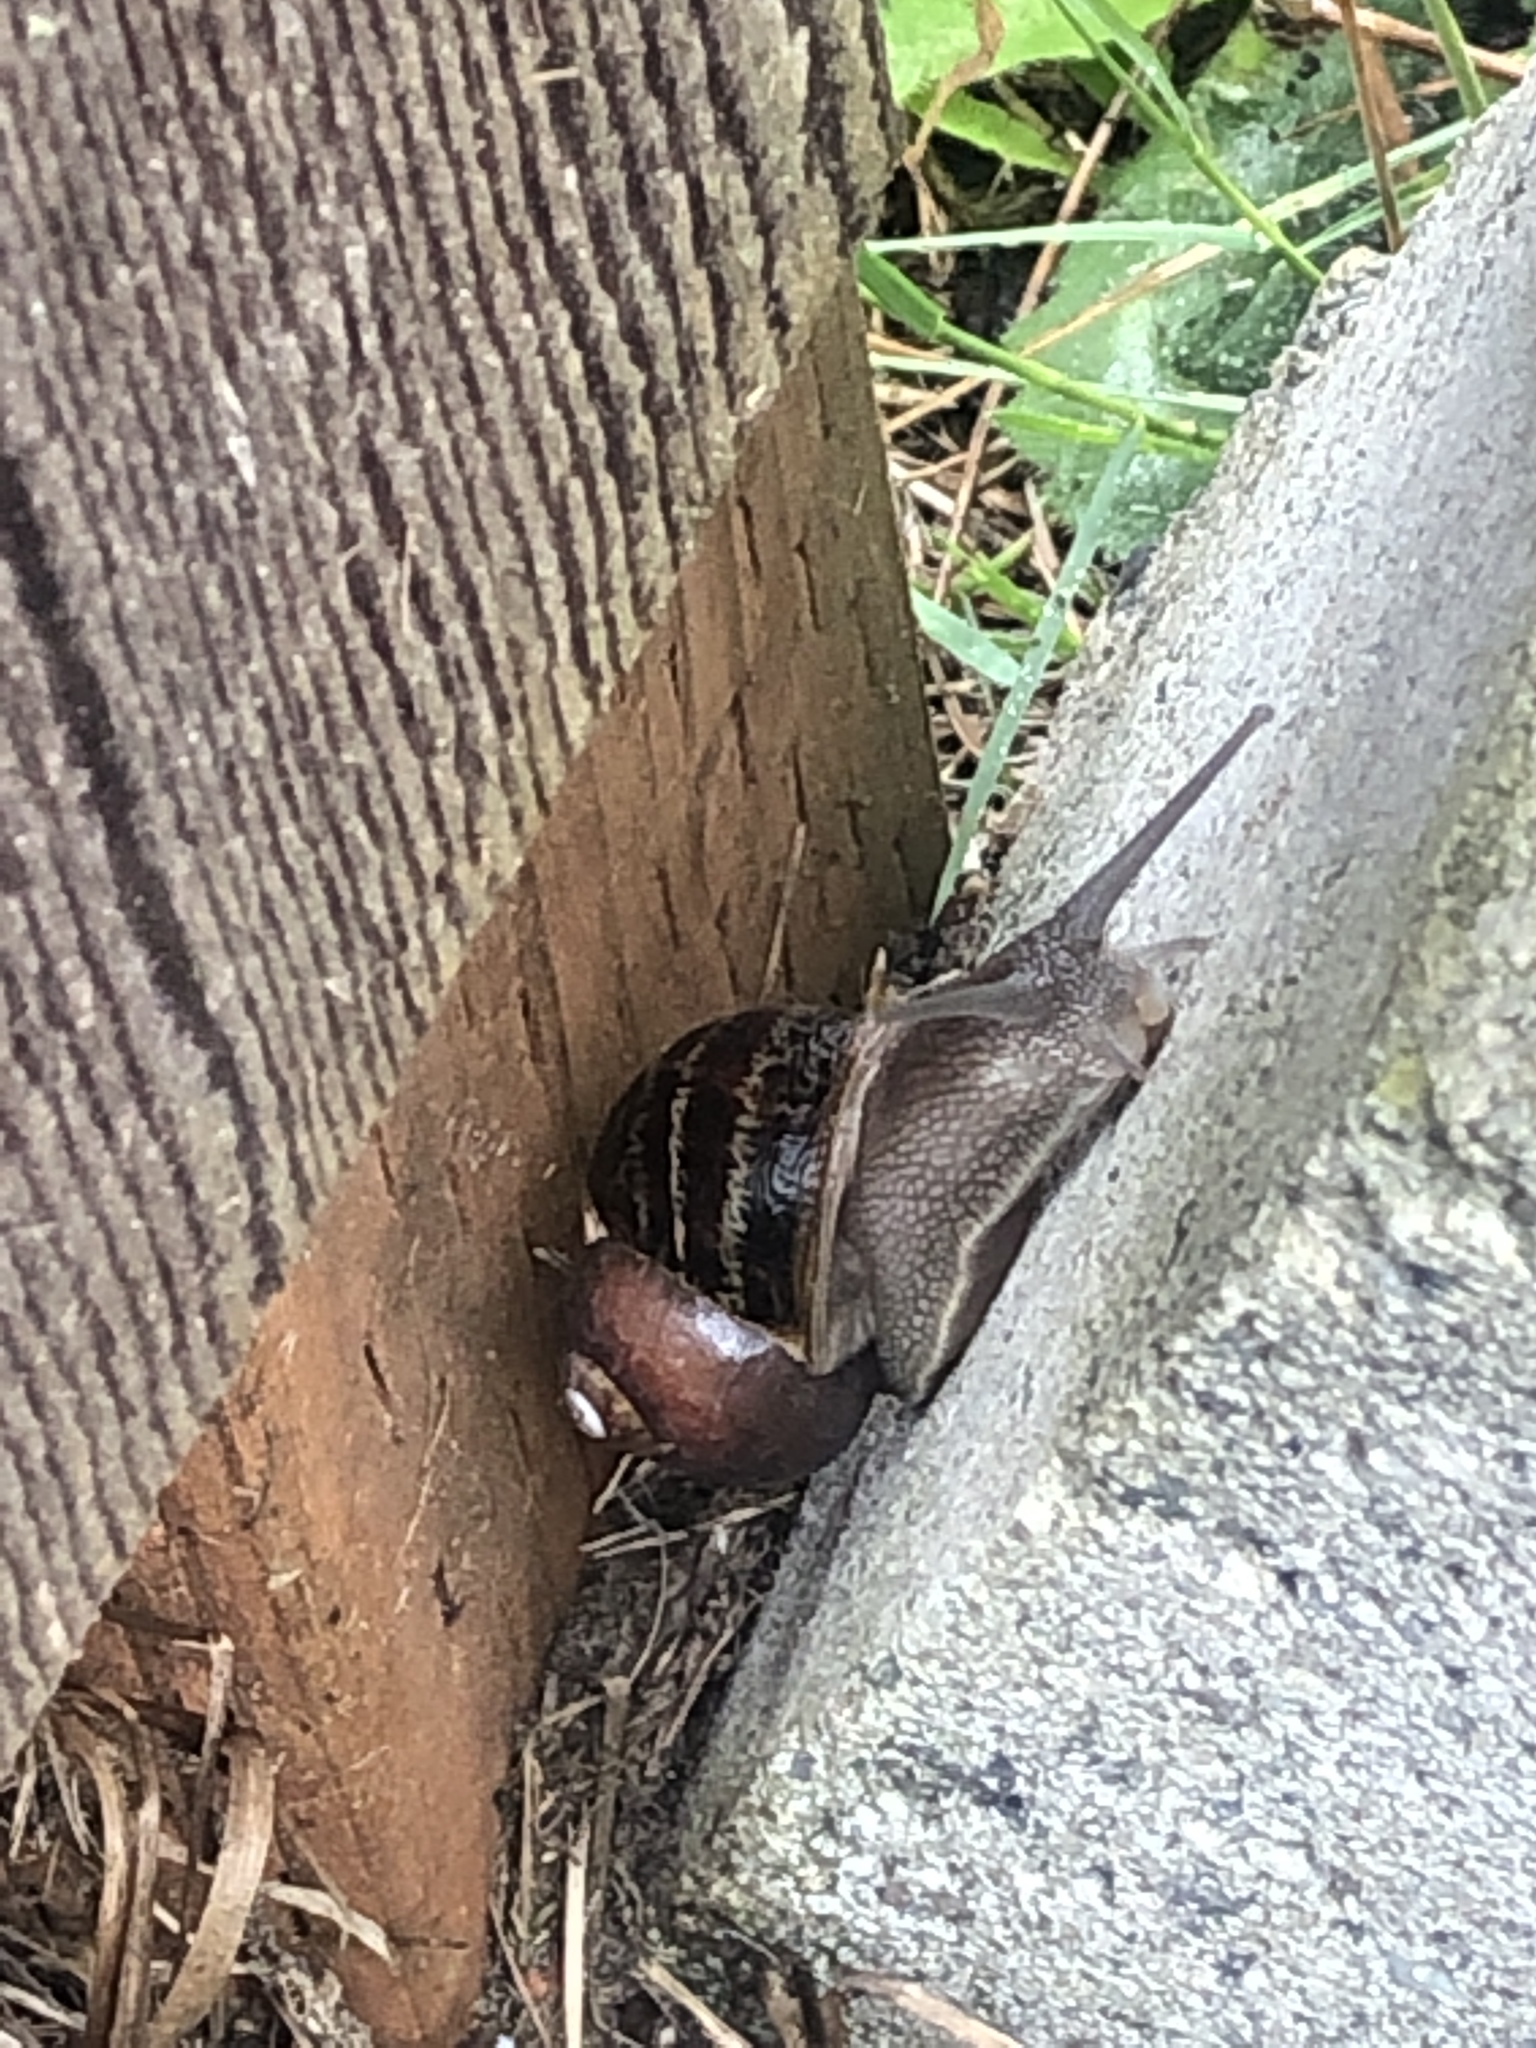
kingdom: Animalia
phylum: Mollusca
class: Gastropoda
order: Stylommatophora
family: Helicidae
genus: Cornu
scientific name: Cornu aspersum
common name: Brown garden snail
